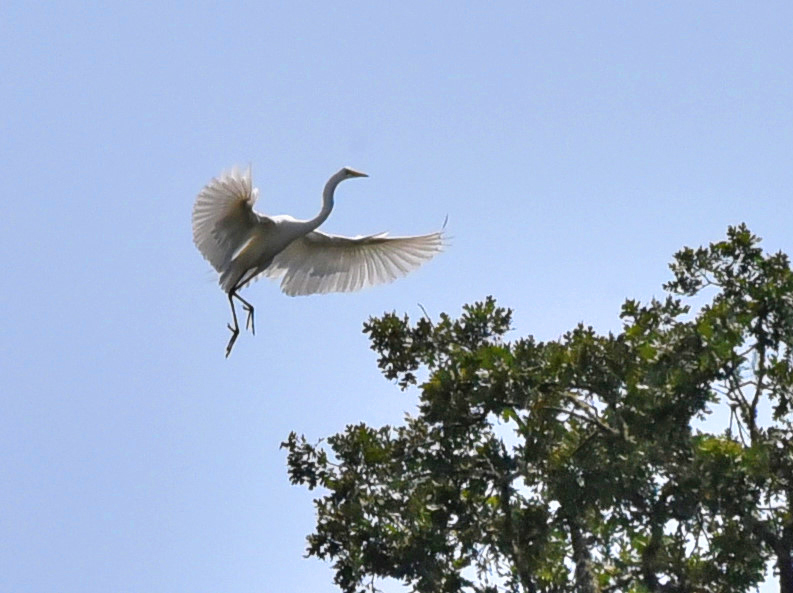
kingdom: Animalia
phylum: Chordata
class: Aves
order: Pelecaniformes
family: Ardeidae
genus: Ardea
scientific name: Ardea alba
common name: Great egret
